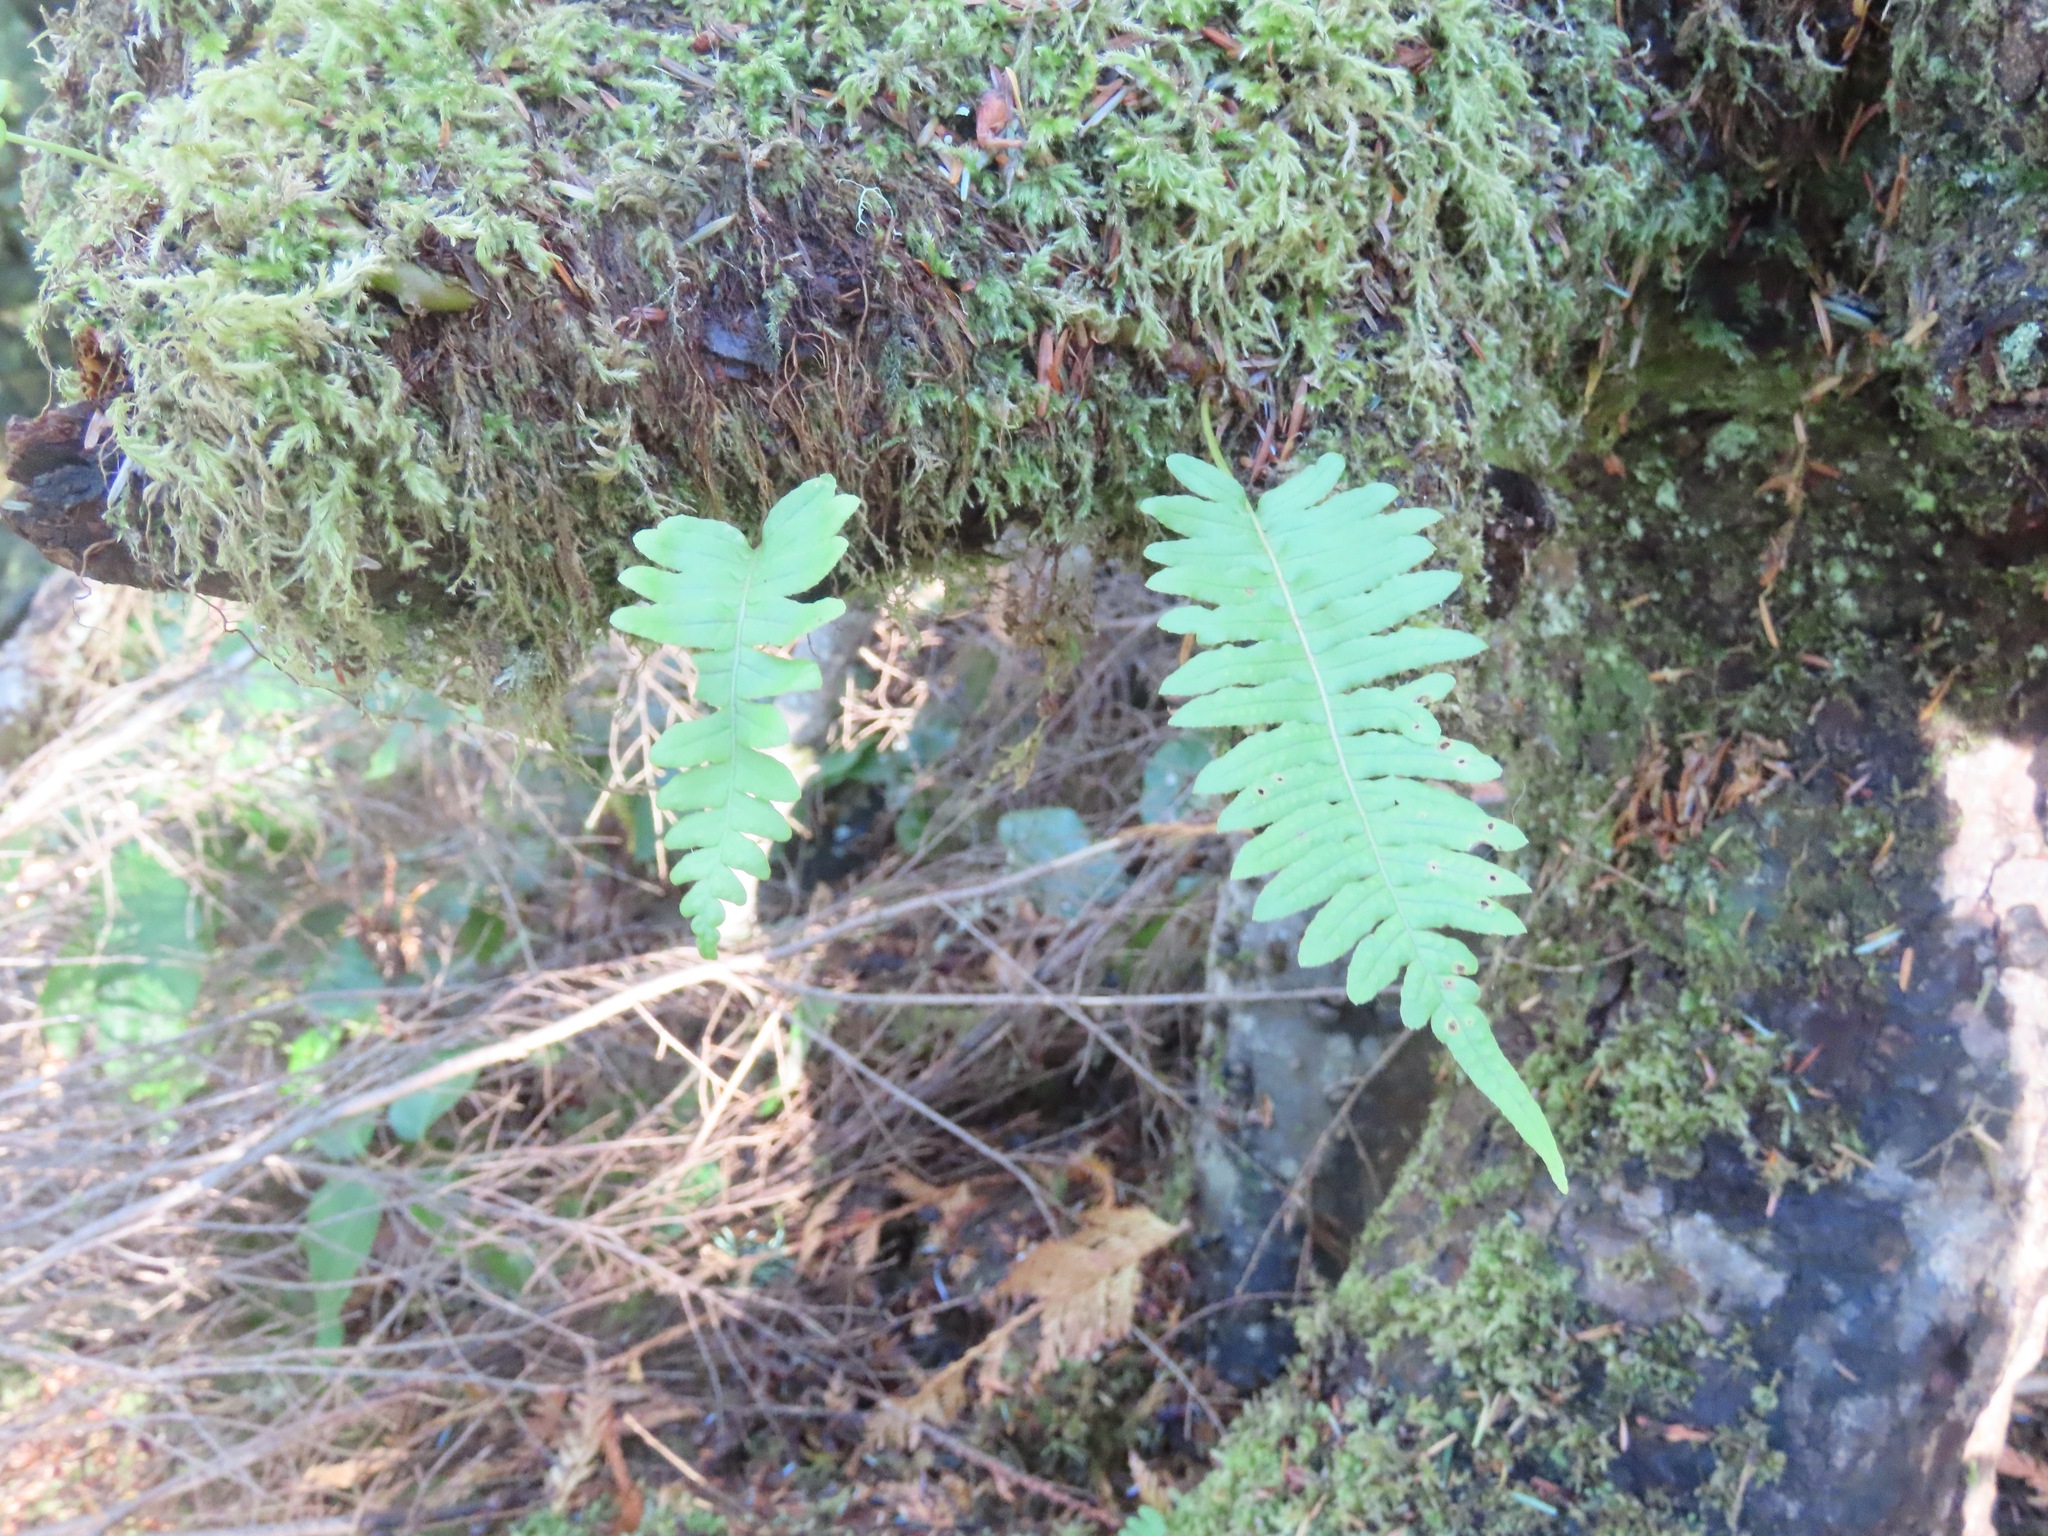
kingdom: Plantae
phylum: Tracheophyta
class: Polypodiopsida
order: Polypodiales
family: Polypodiaceae
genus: Polypodium
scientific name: Polypodium glycyrrhiza
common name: Licorice fern
